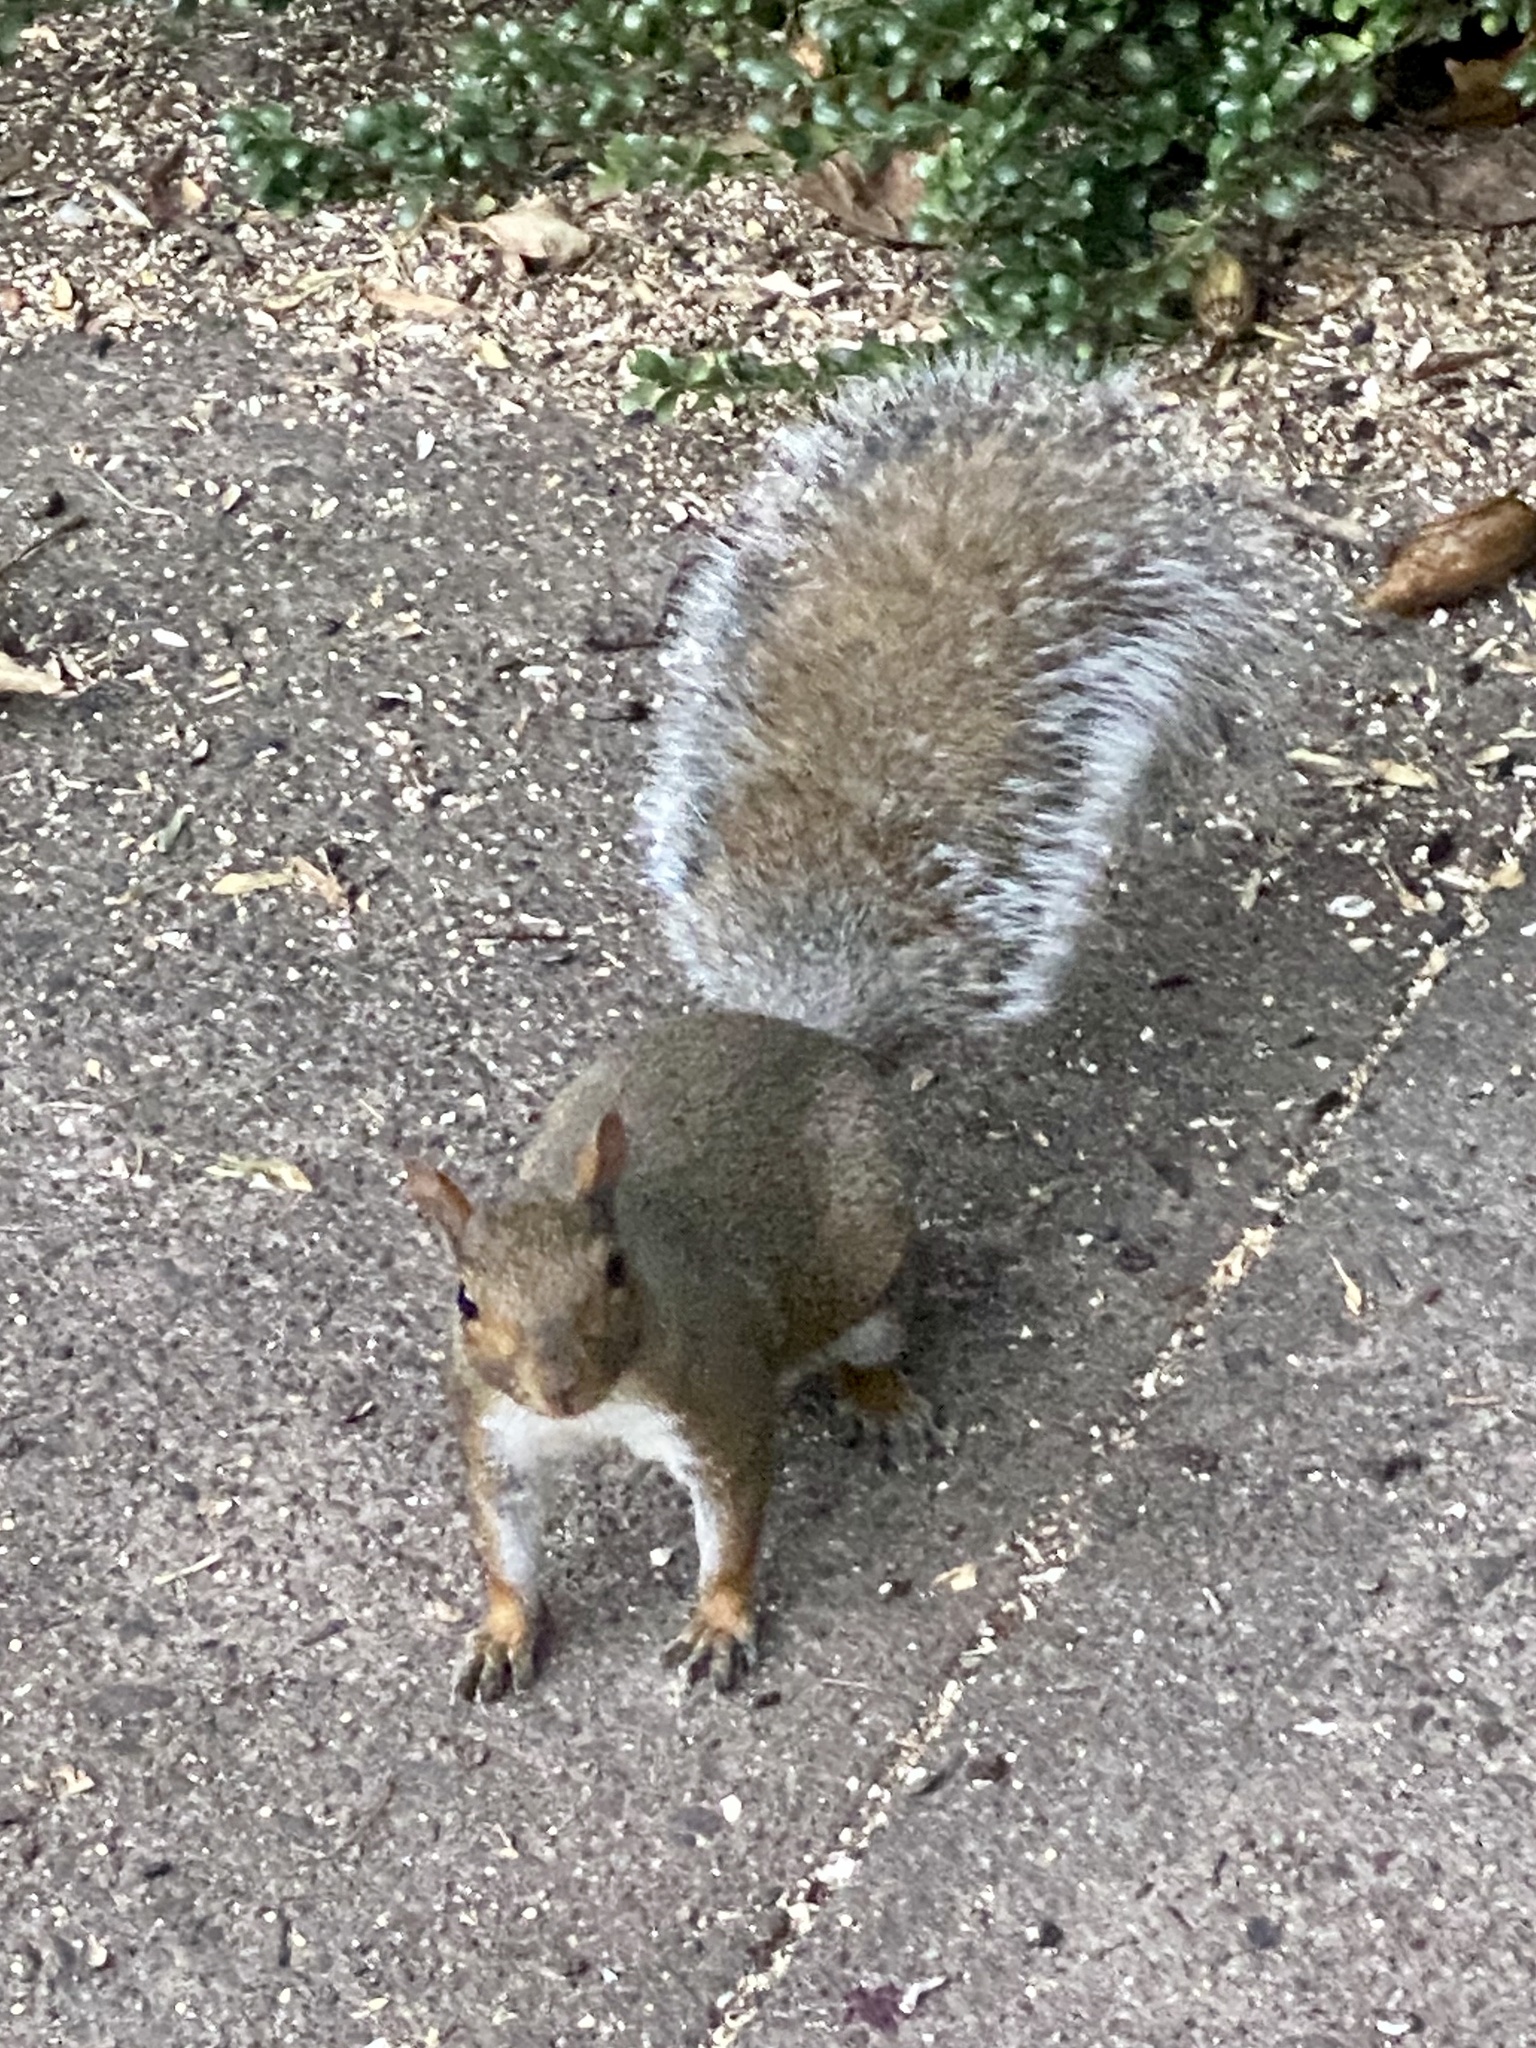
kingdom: Animalia
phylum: Chordata
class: Mammalia
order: Rodentia
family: Sciuridae
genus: Sciurus
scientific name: Sciurus carolinensis
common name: Eastern gray squirrel
